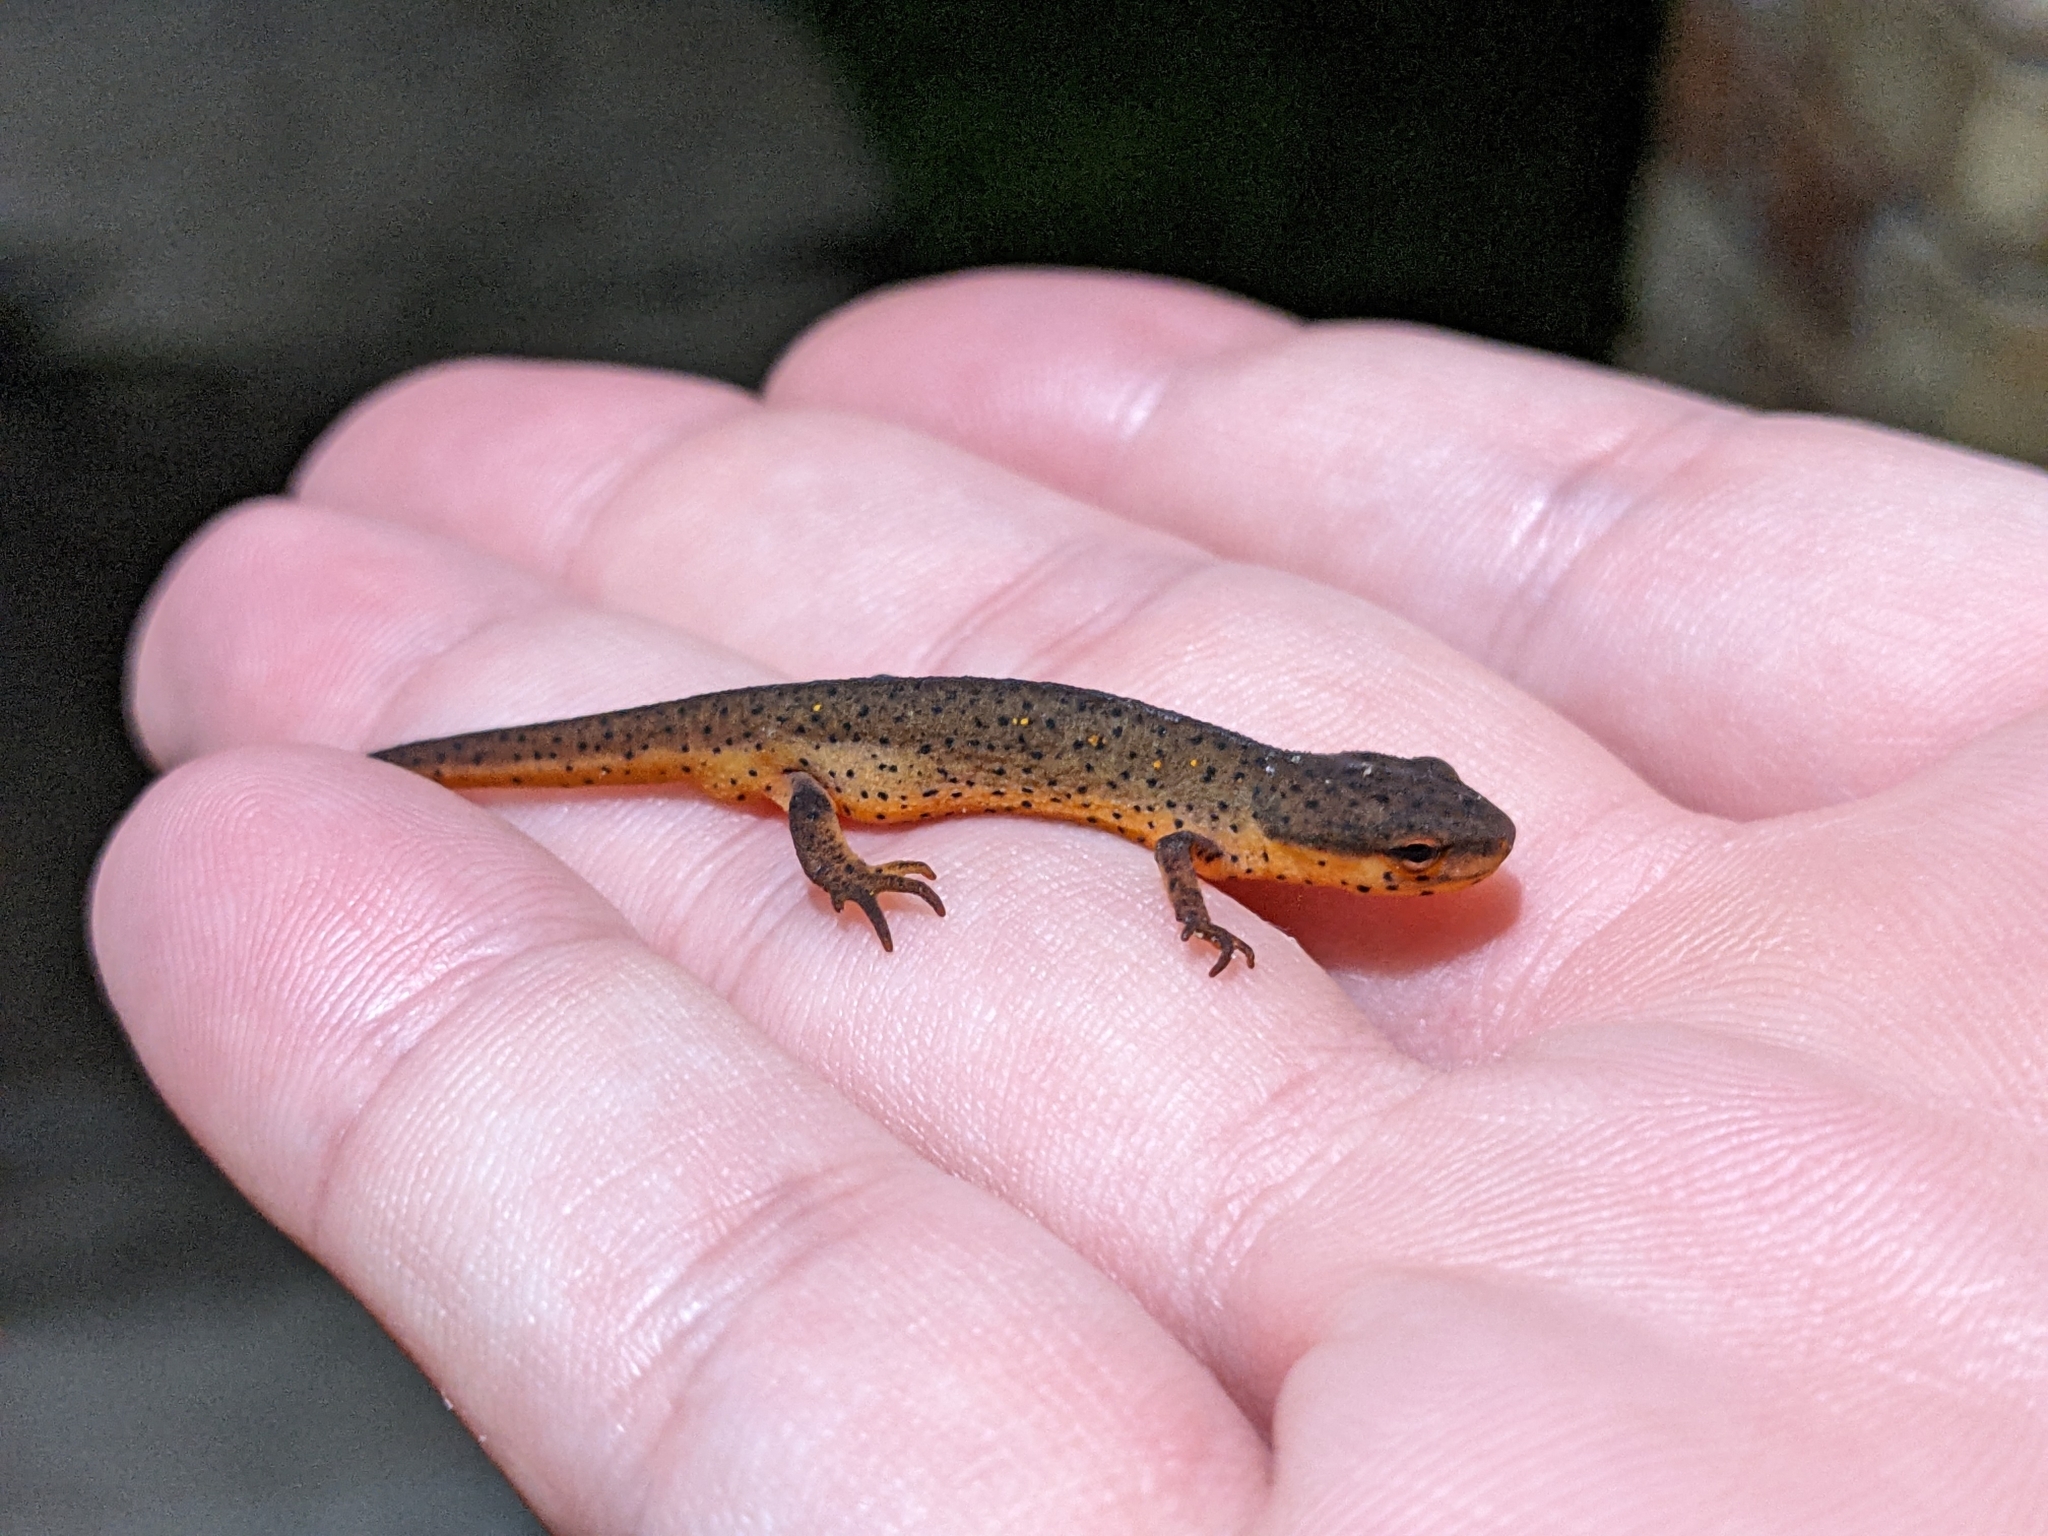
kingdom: Animalia
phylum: Chordata
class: Amphibia
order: Caudata
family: Salamandridae
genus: Notophthalmus
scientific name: Notophthalmus viridescens
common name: Eastern newt
